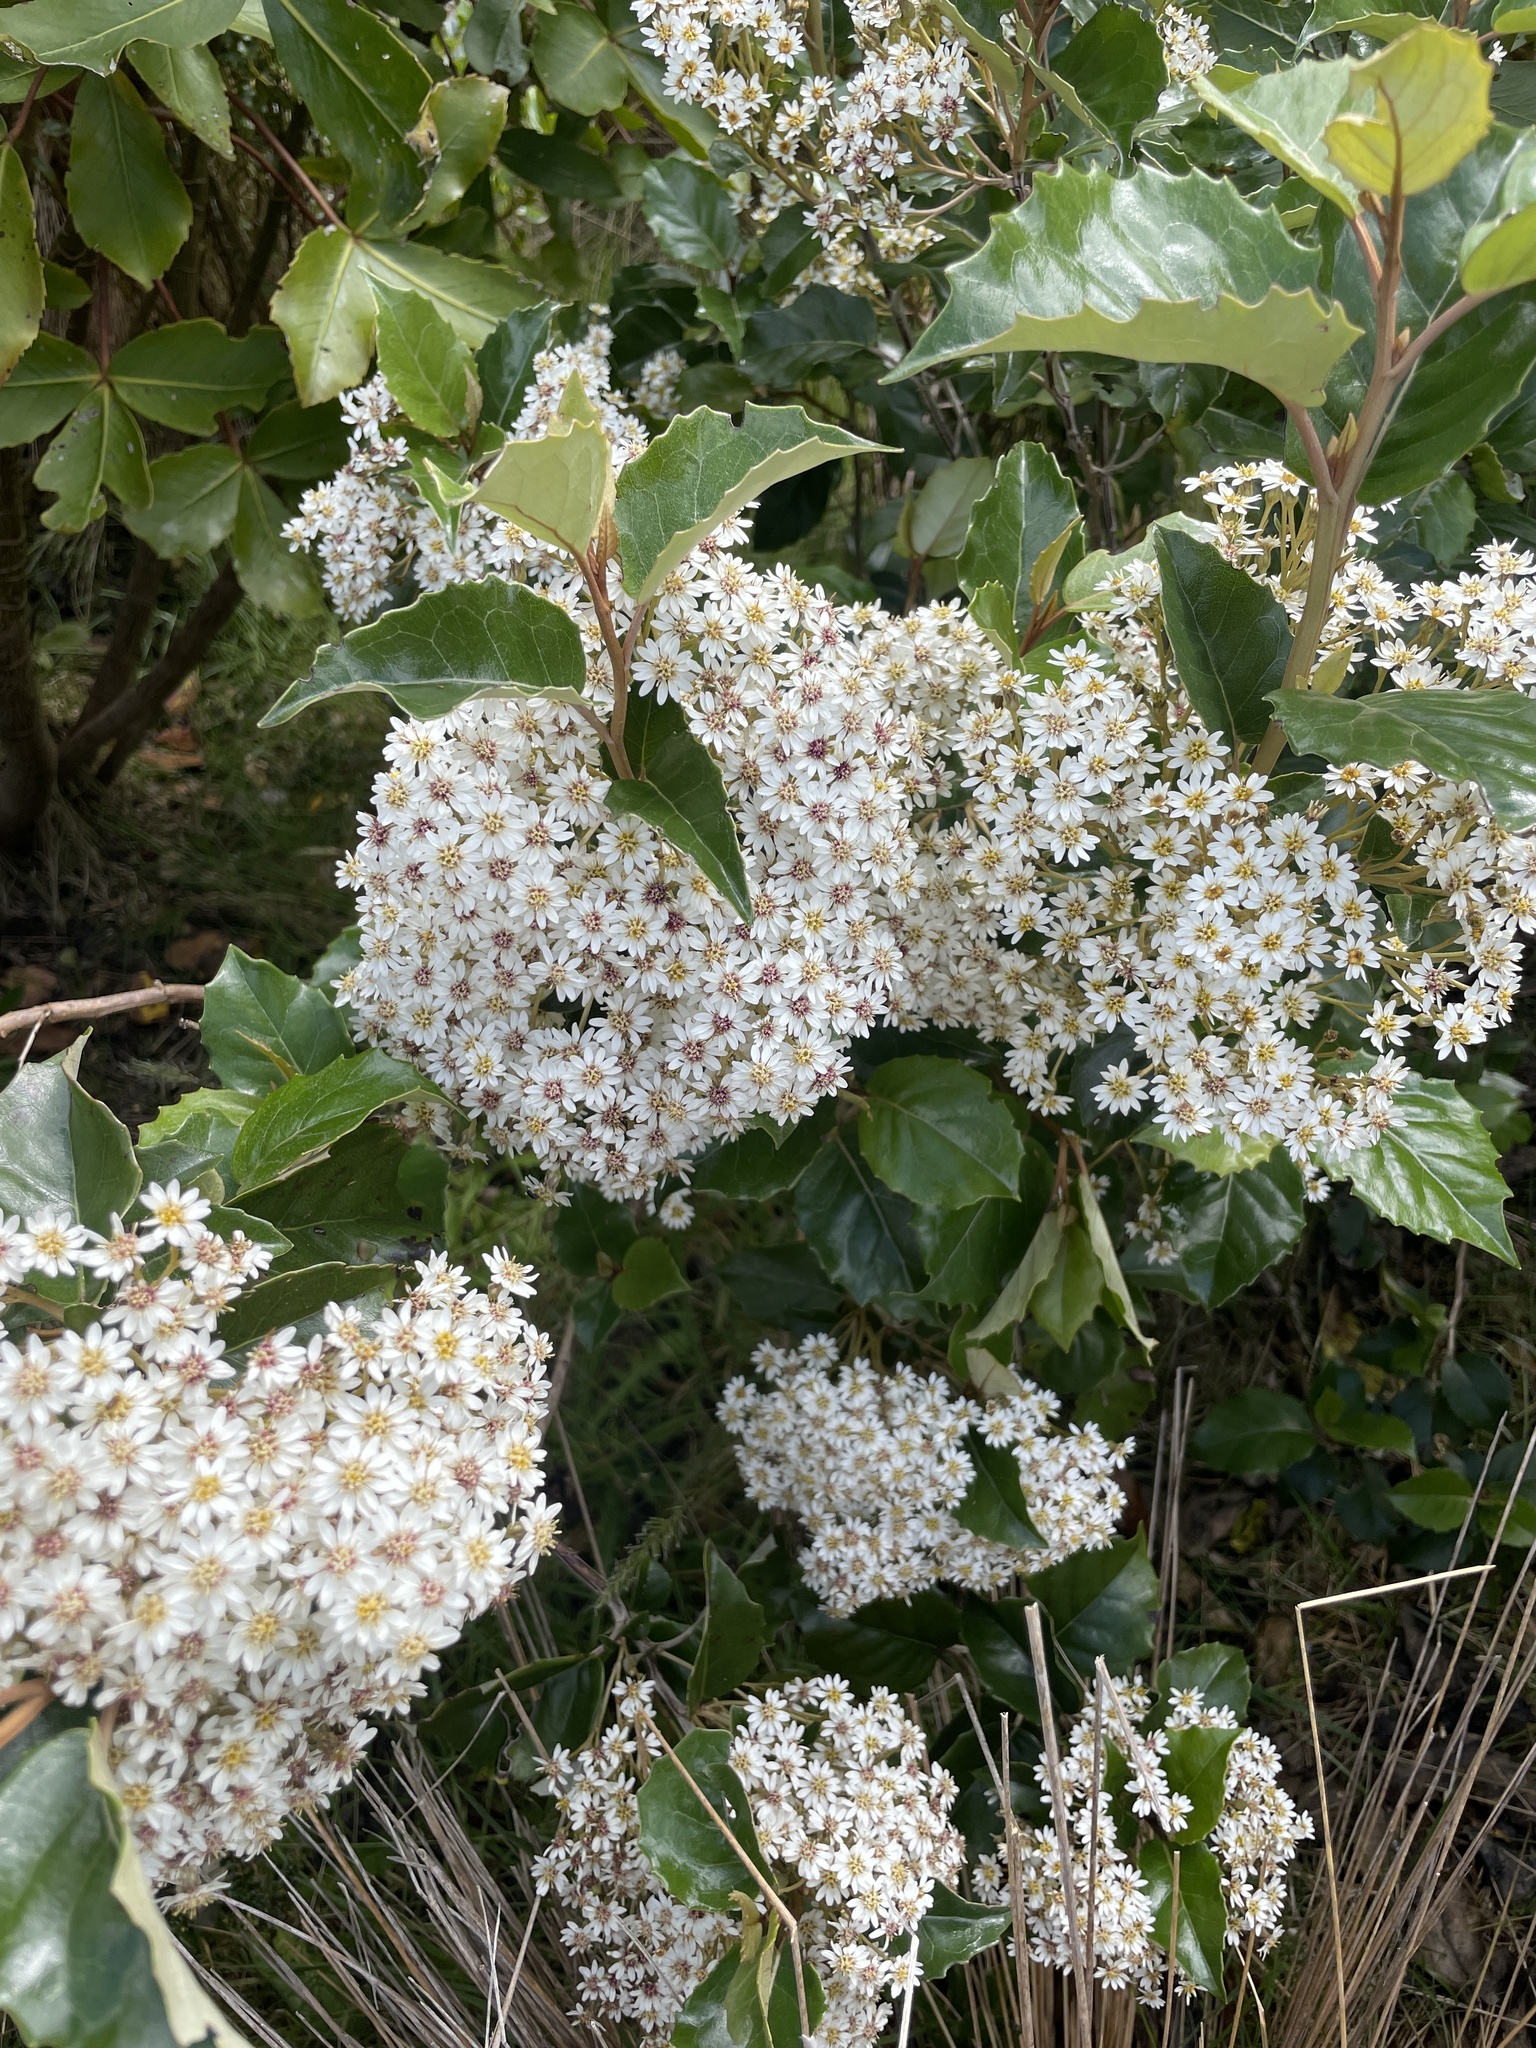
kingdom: Plantae
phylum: Tracheophyta
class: Magnoliopsida
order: Asterales
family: Asteraceae
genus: Olearia
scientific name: Olearia arborescens
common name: Glossy tree daisy
